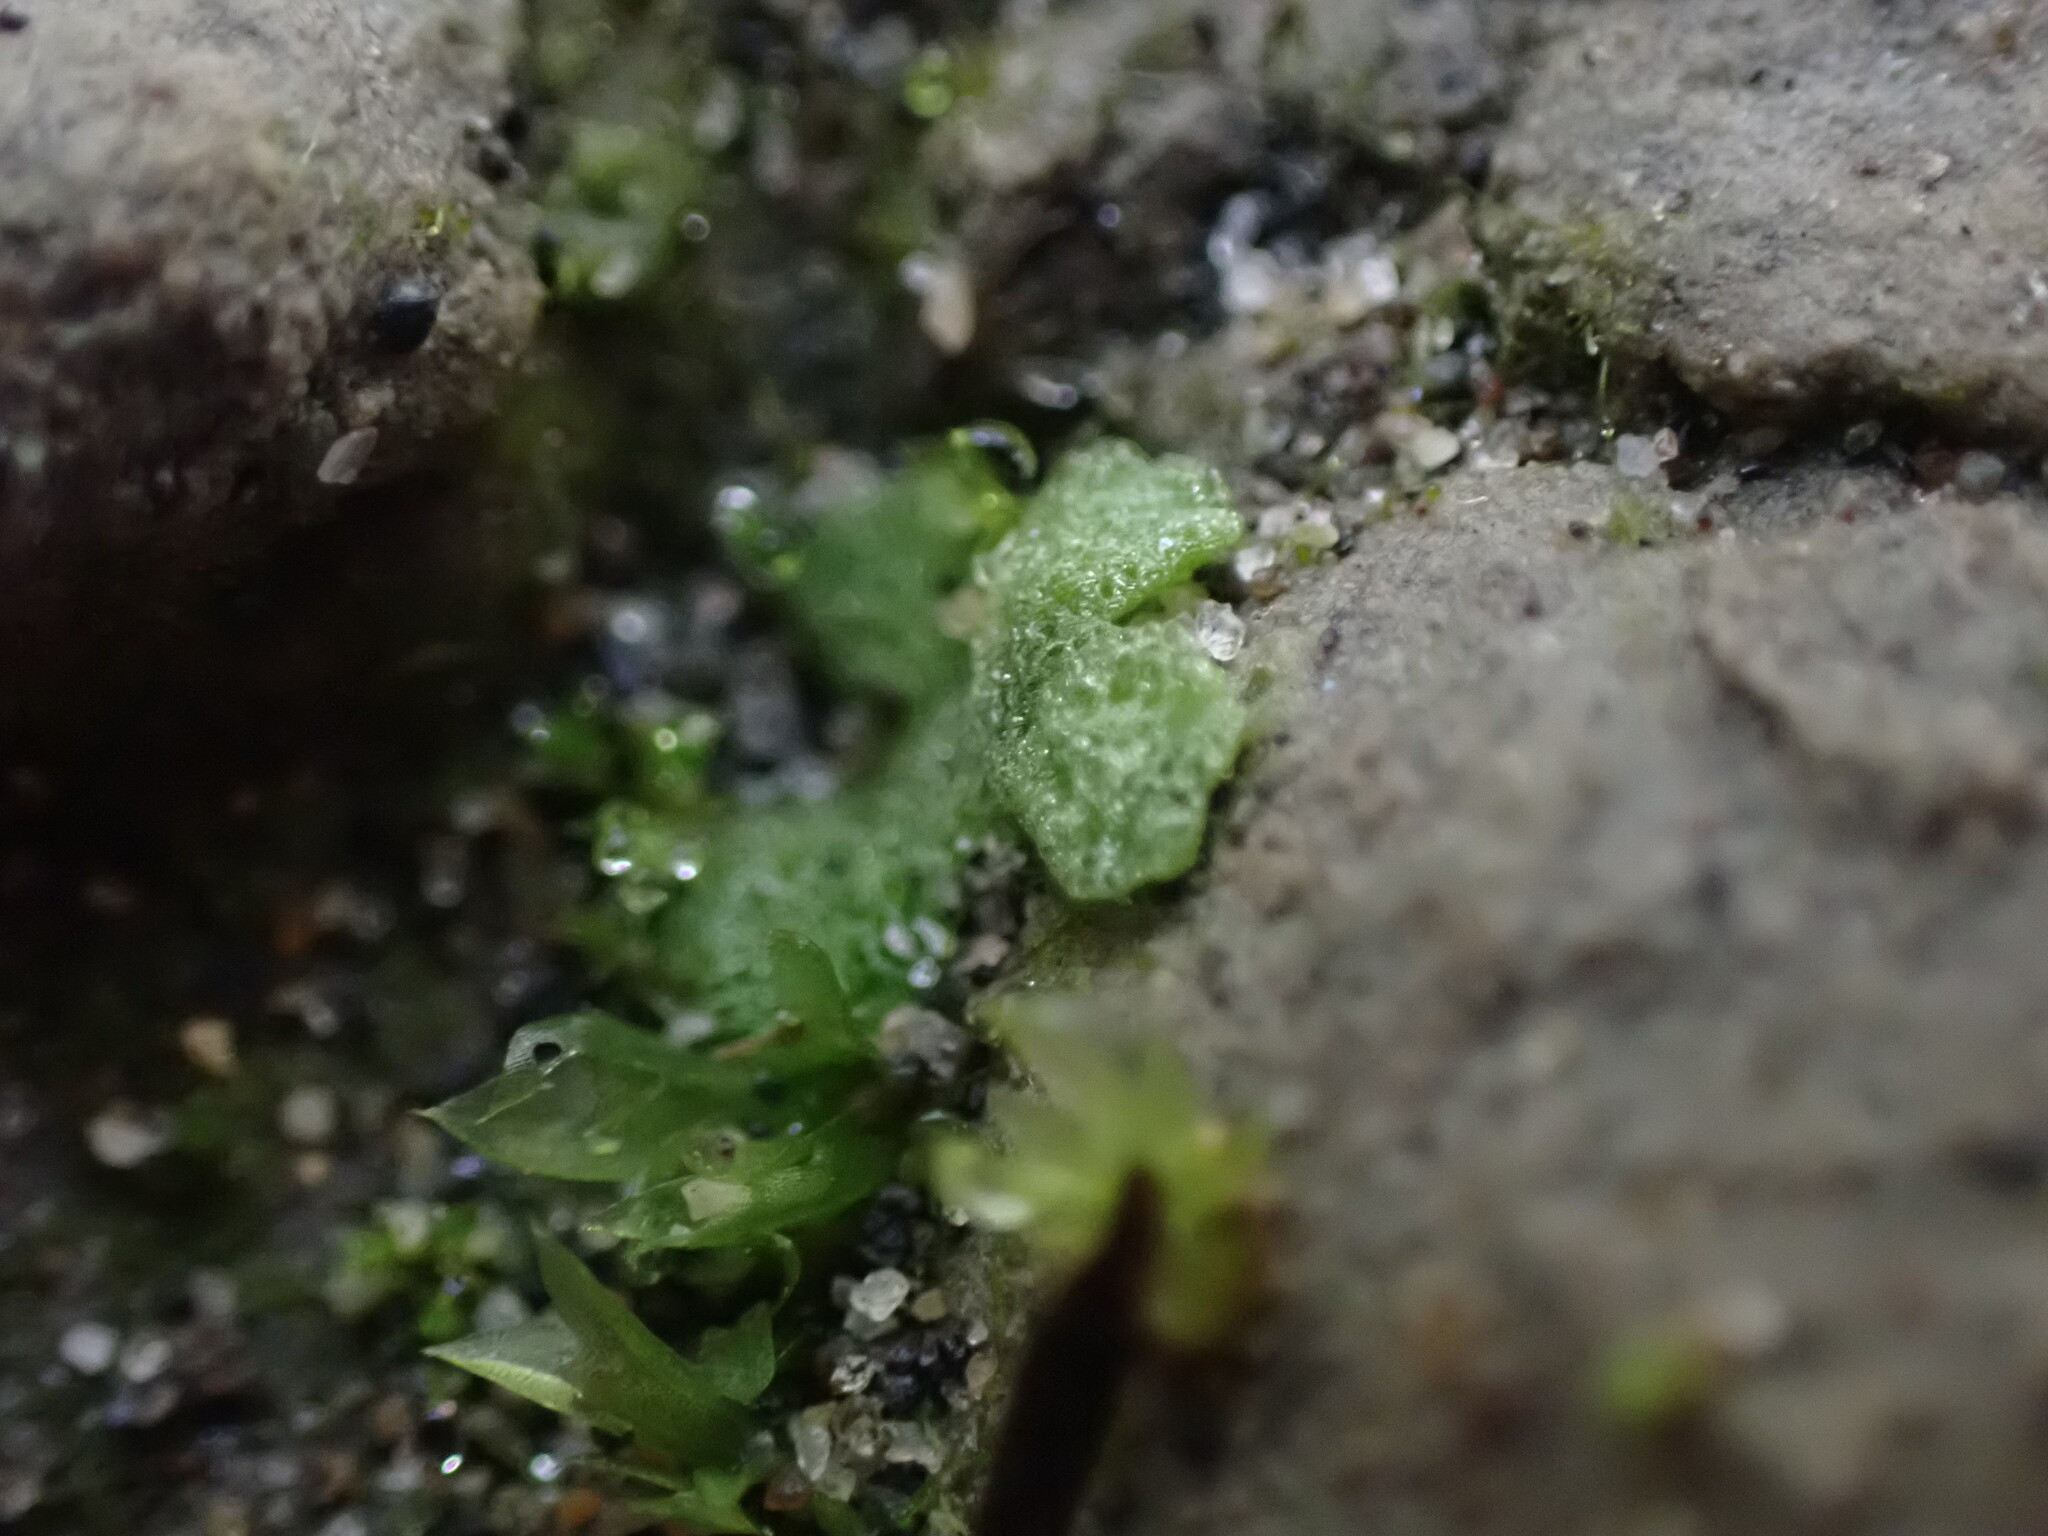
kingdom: Plantae
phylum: Marchantiophyta
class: Marchantiopsida
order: Marchantiales
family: Ricciaceae
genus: Riccia
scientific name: Riccia cavernosa
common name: Cavernous crystalwort
